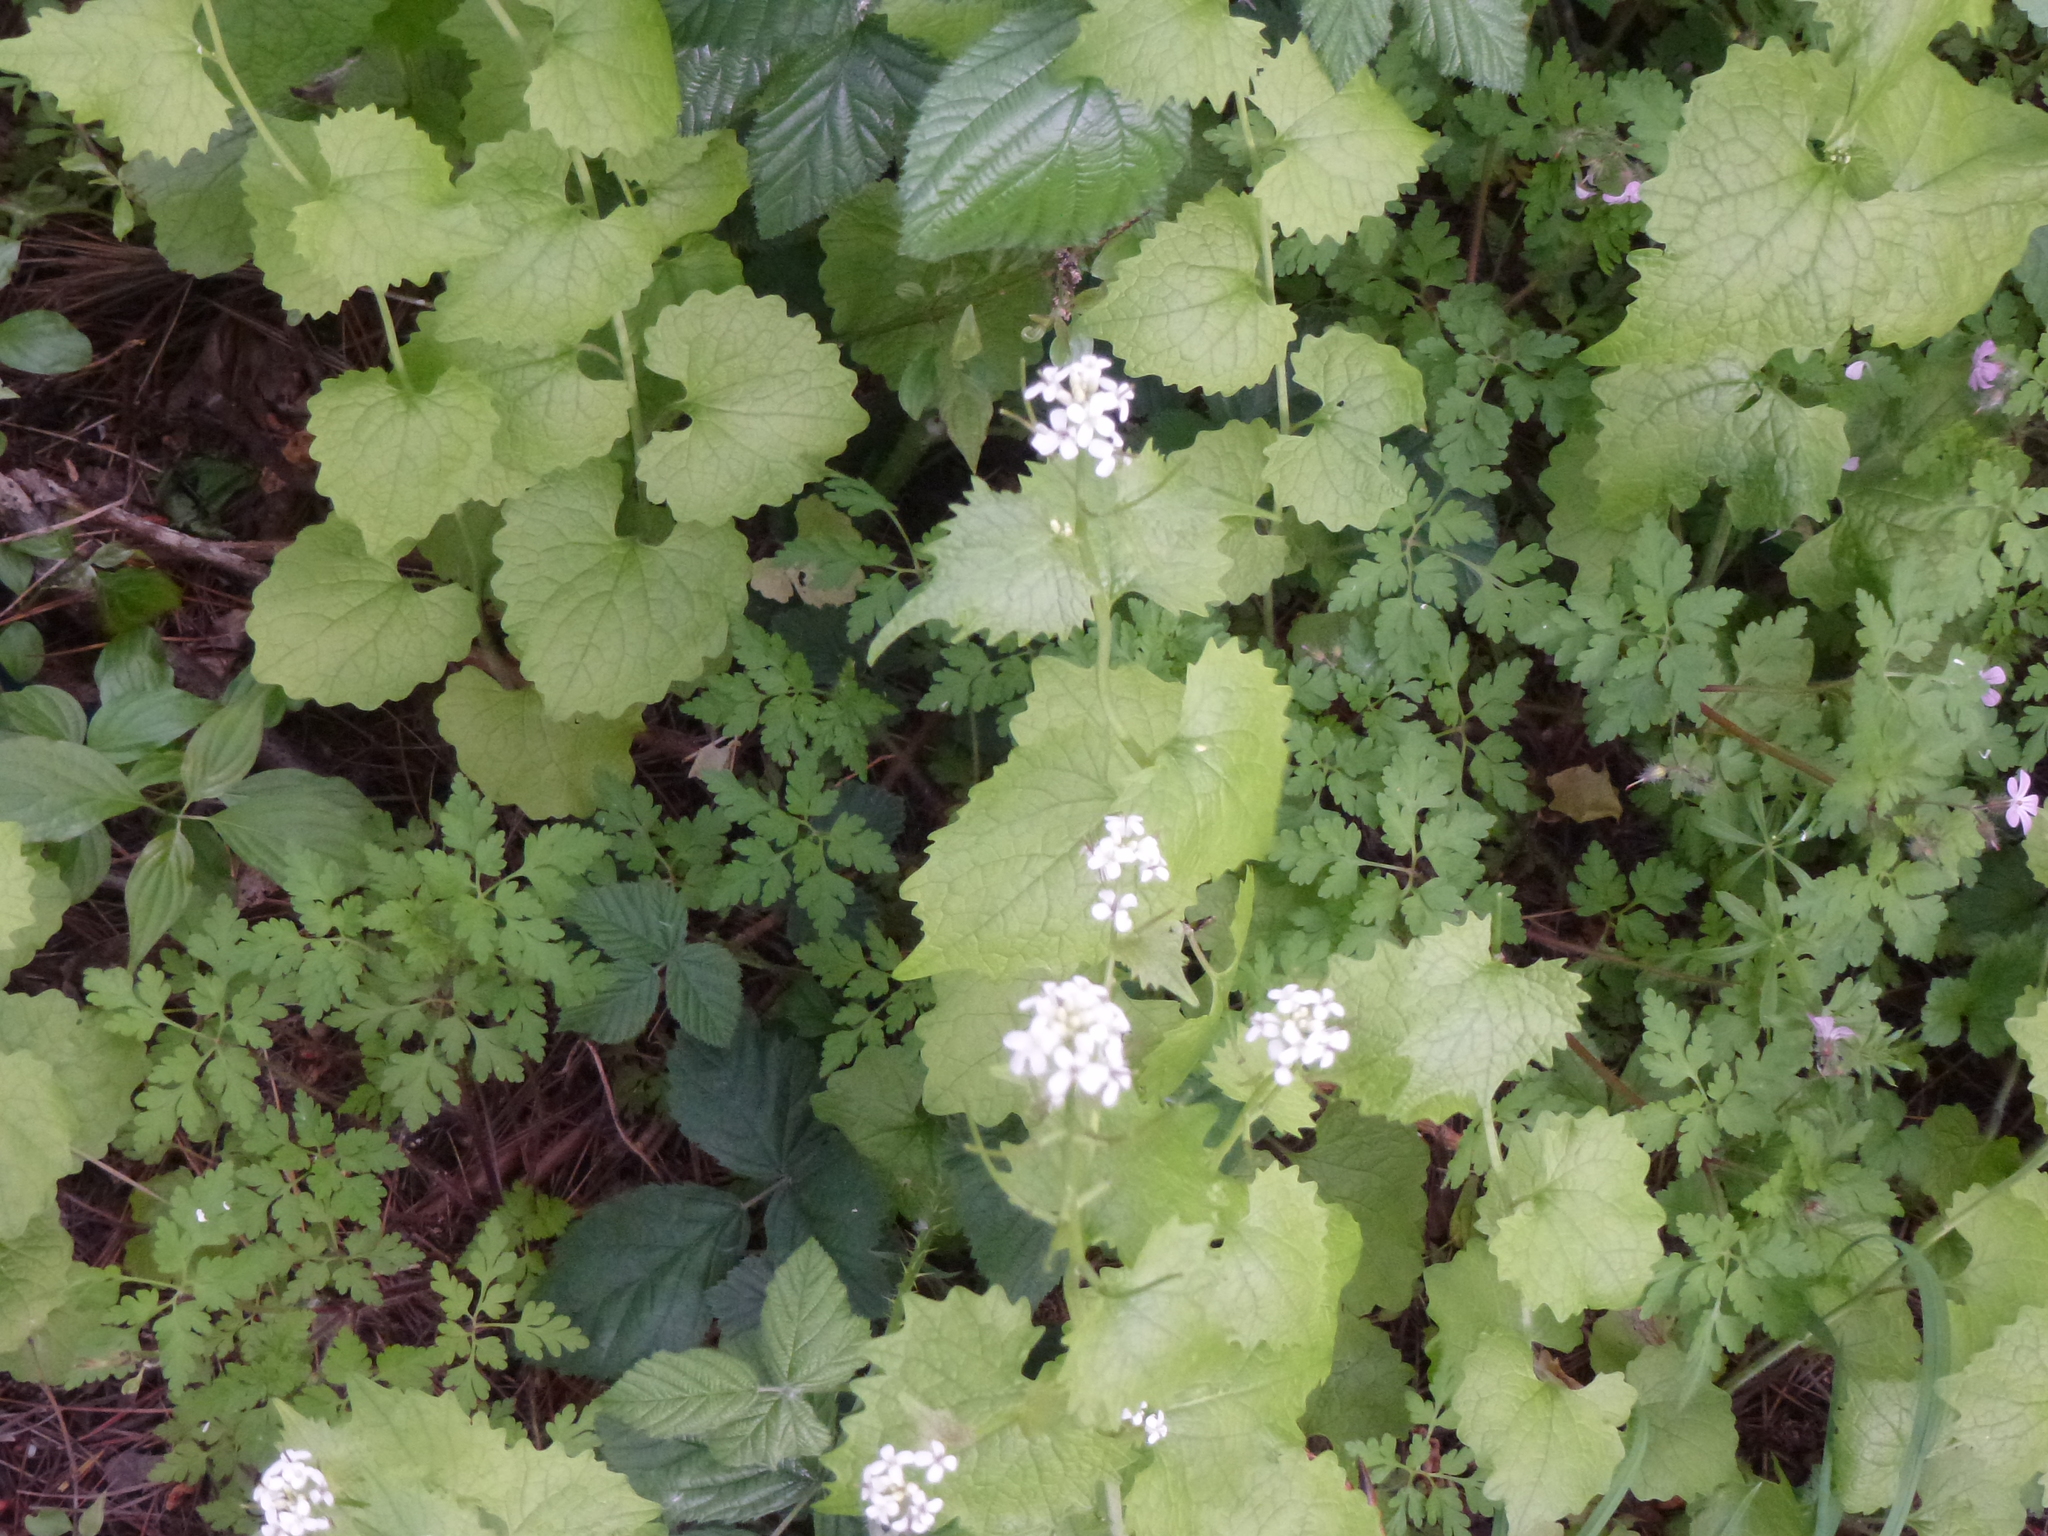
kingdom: Plantae
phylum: Tracheophyta
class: Magnoliopsida
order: Brassicales
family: Brassicaceae
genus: Alliaria
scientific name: Alliaria petiolata
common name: Garlic mustard
